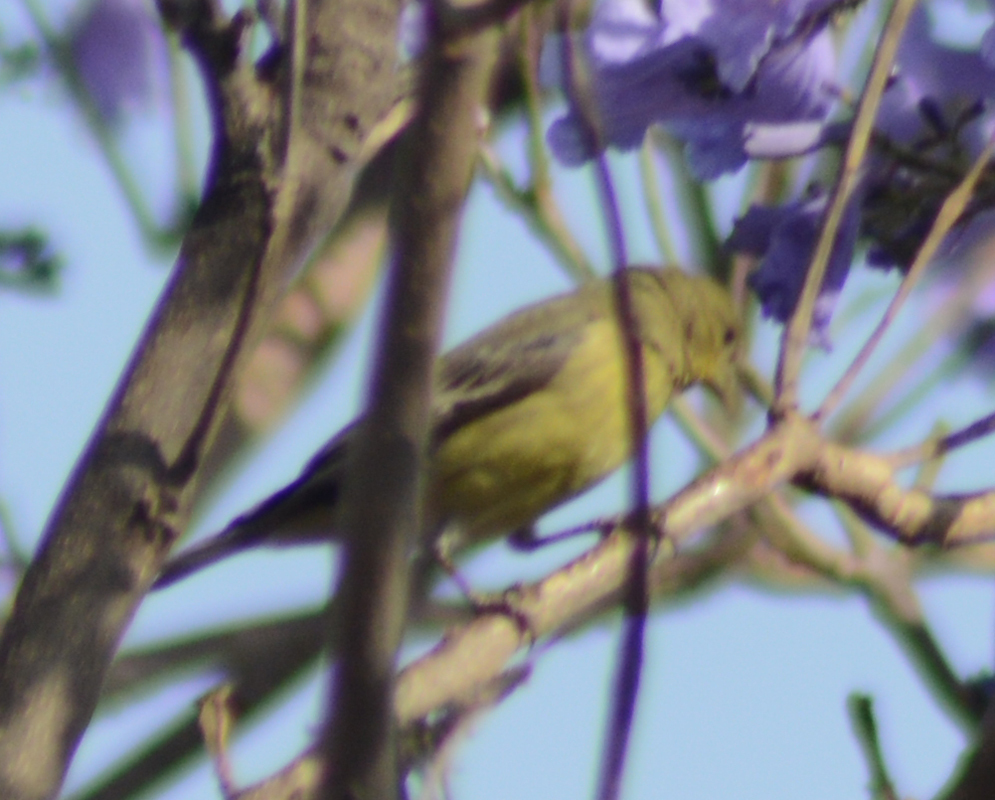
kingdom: Animalia
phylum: Chordata
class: Aves
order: Passeriformes
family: Fringillidae
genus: Spinus
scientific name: Spinus psaltria
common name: Lesser goldfinch
